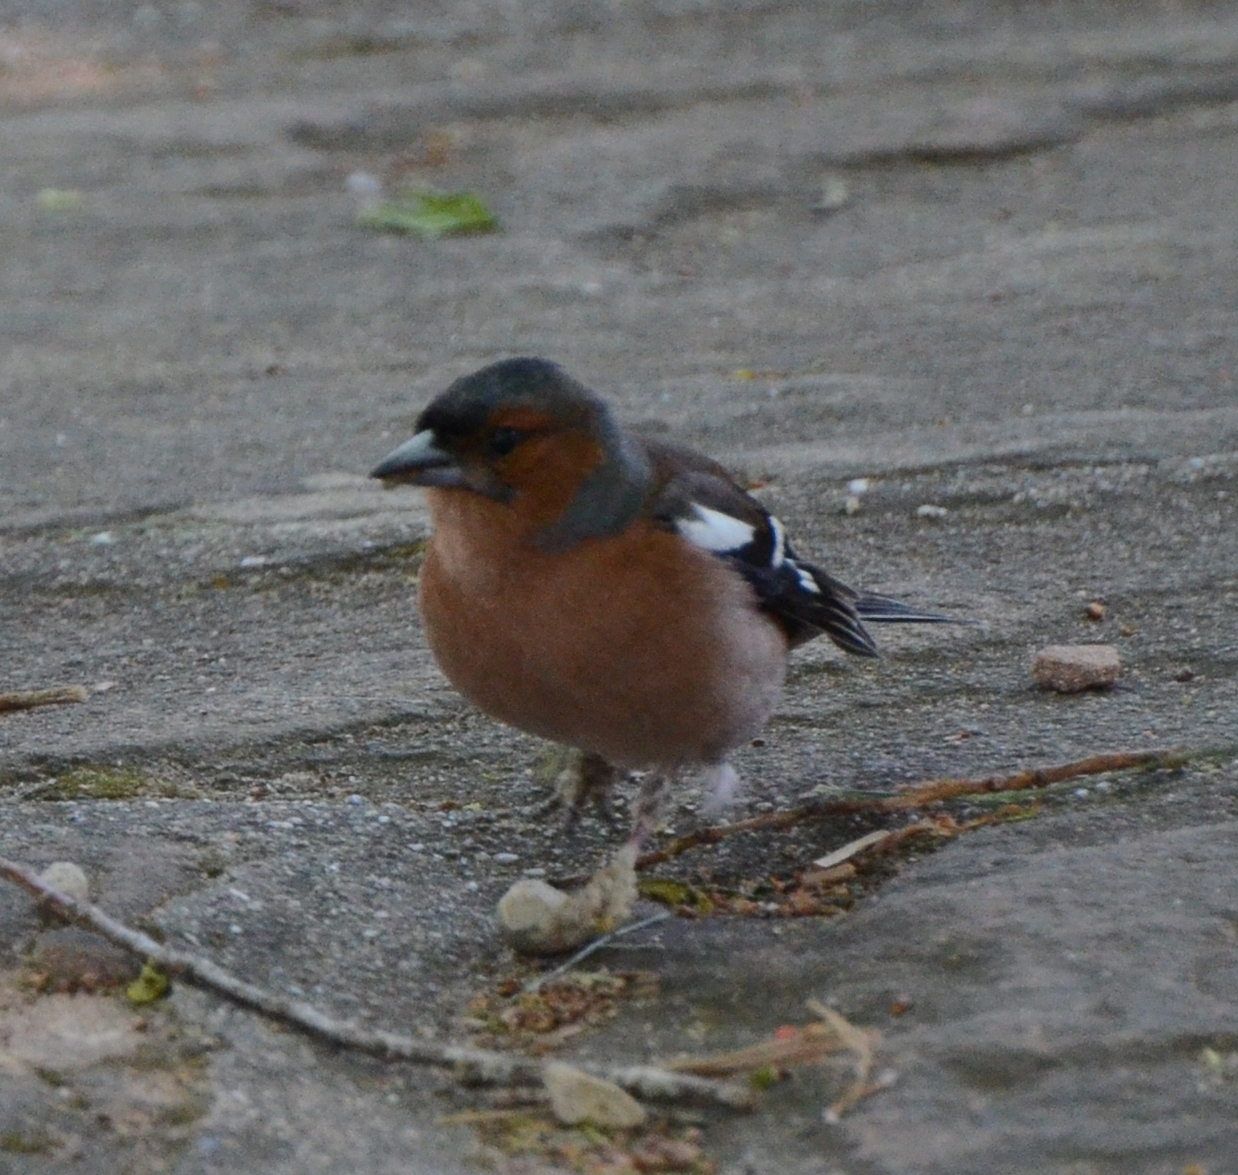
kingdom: Animalia
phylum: Chordata
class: Aves
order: Passeriformes
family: Fringillidae
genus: Fringilla
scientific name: Fringilla coelebs
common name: Common chaffinch
